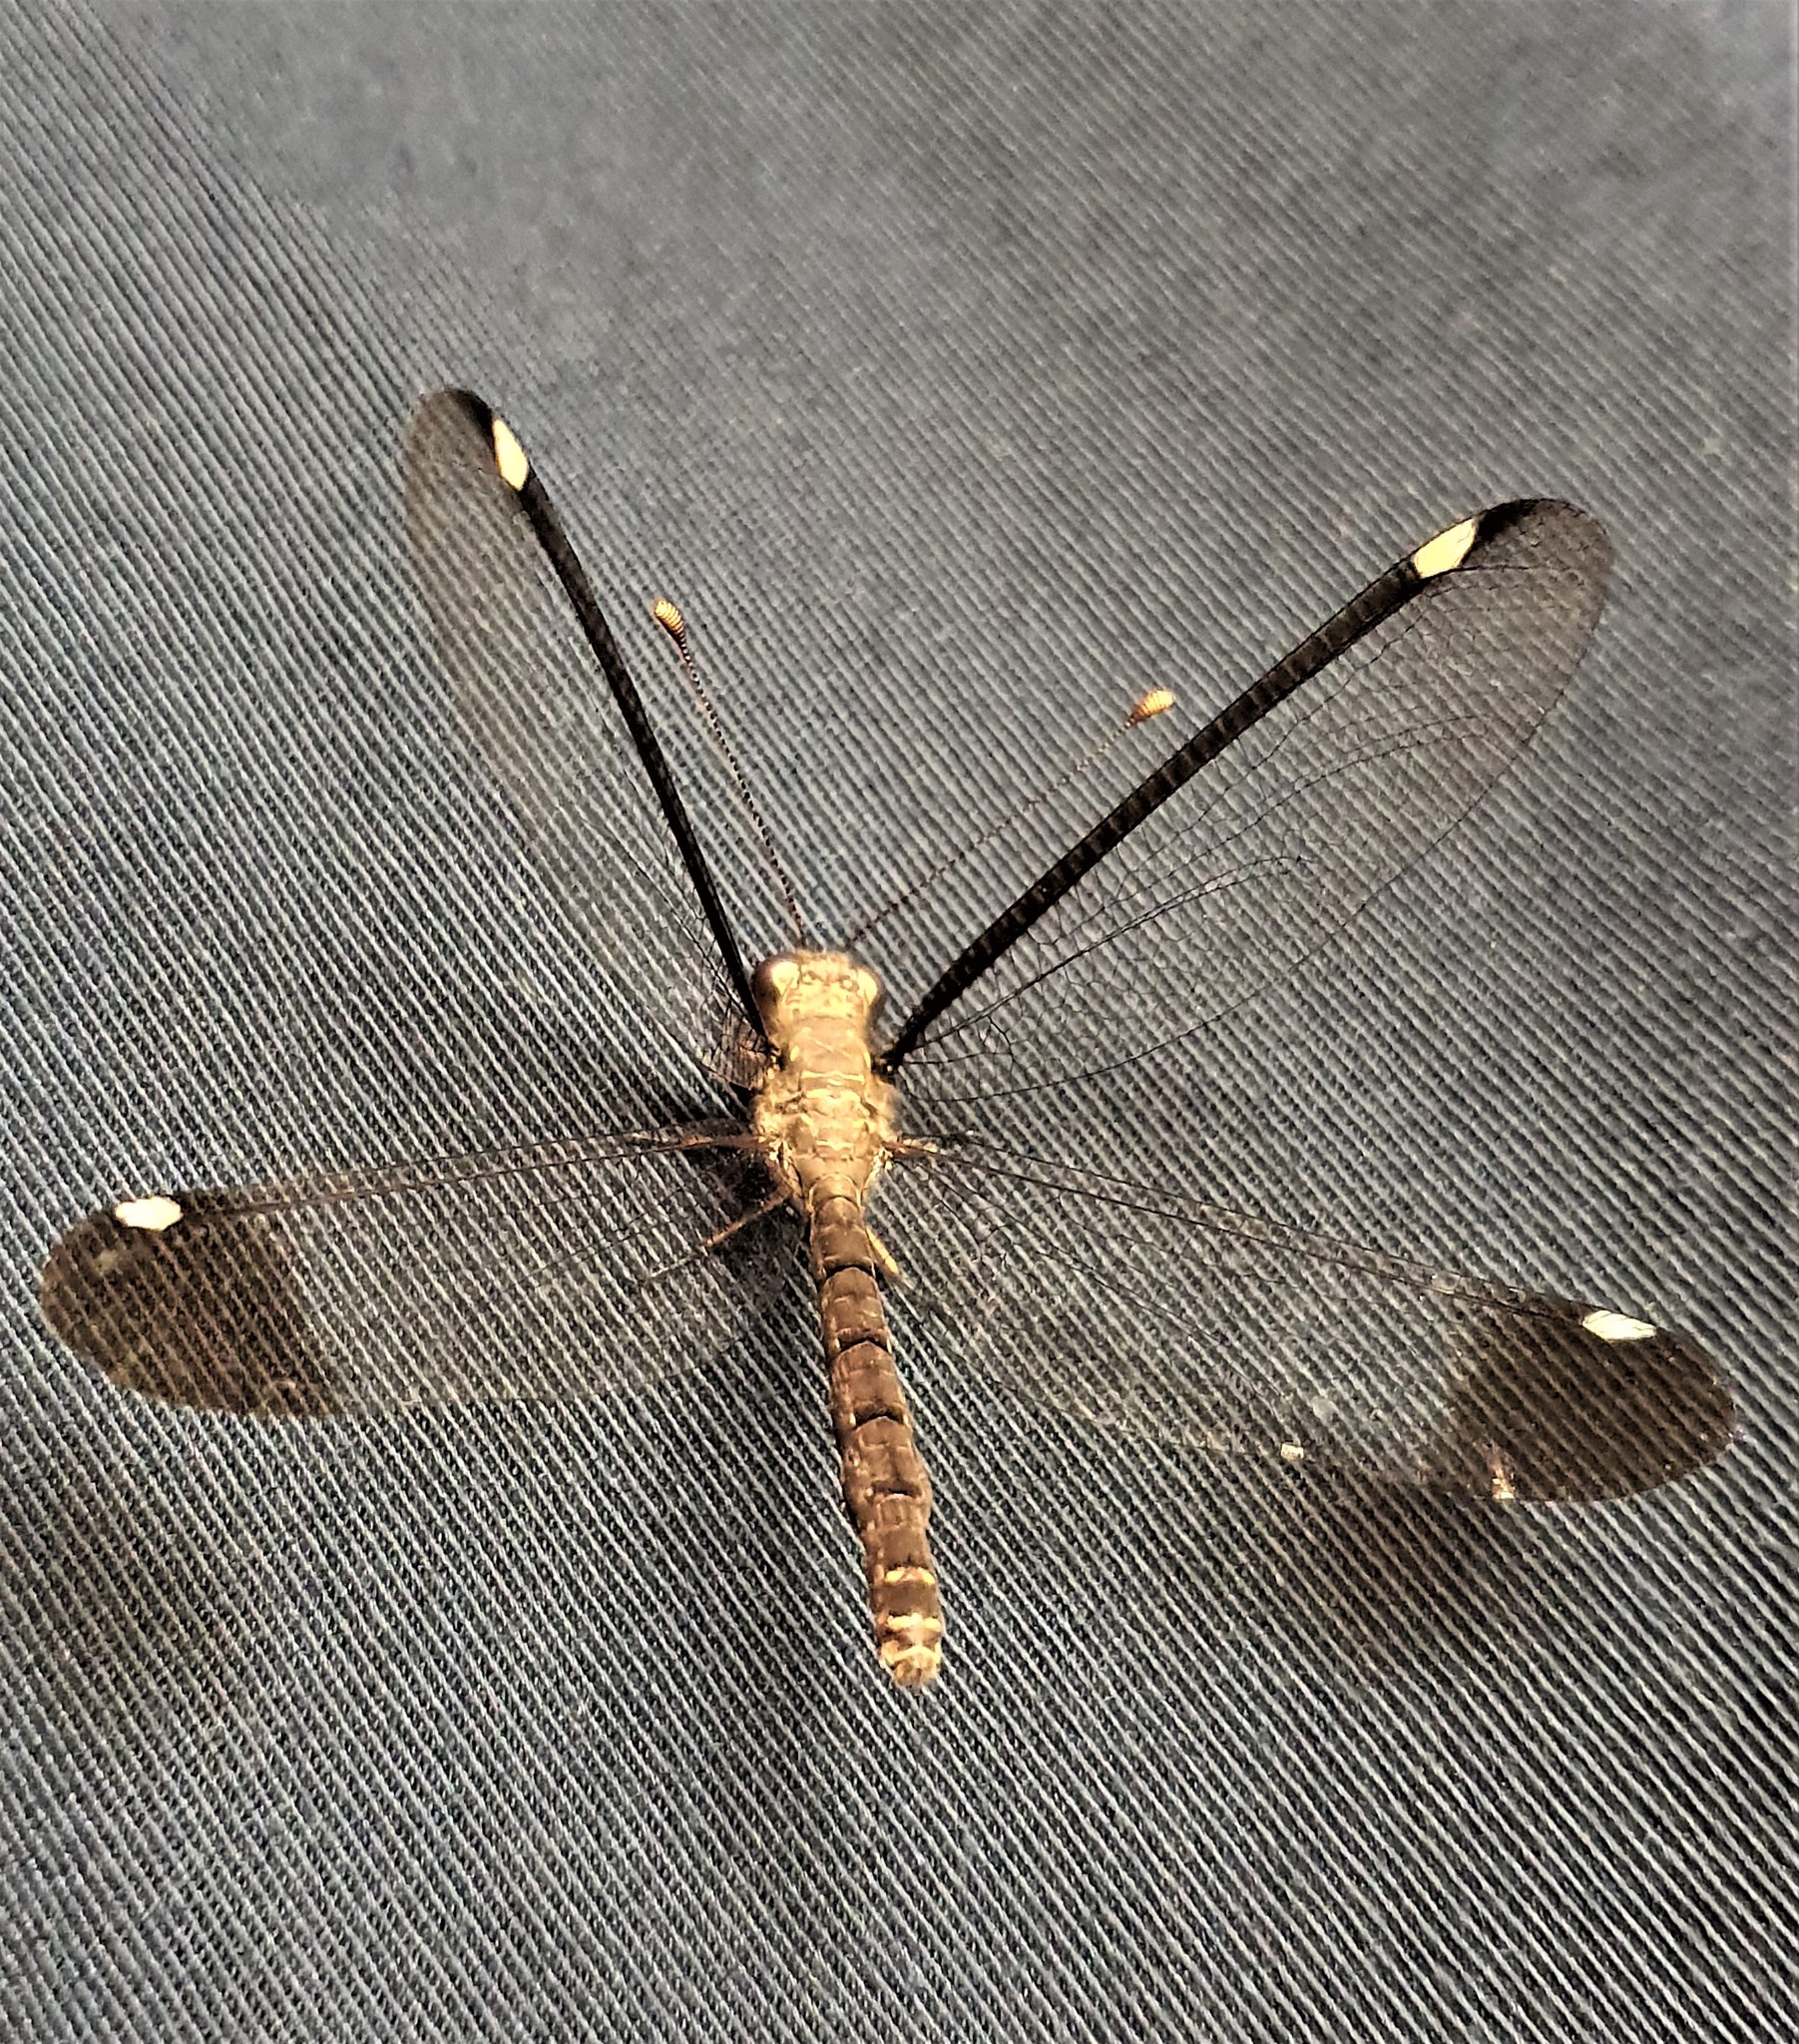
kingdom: Animalia
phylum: Arthropoda
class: Insecta
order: Neuroptera
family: Ascalaphidae
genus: Ascalobyas
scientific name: Ascalobyas albistigma
